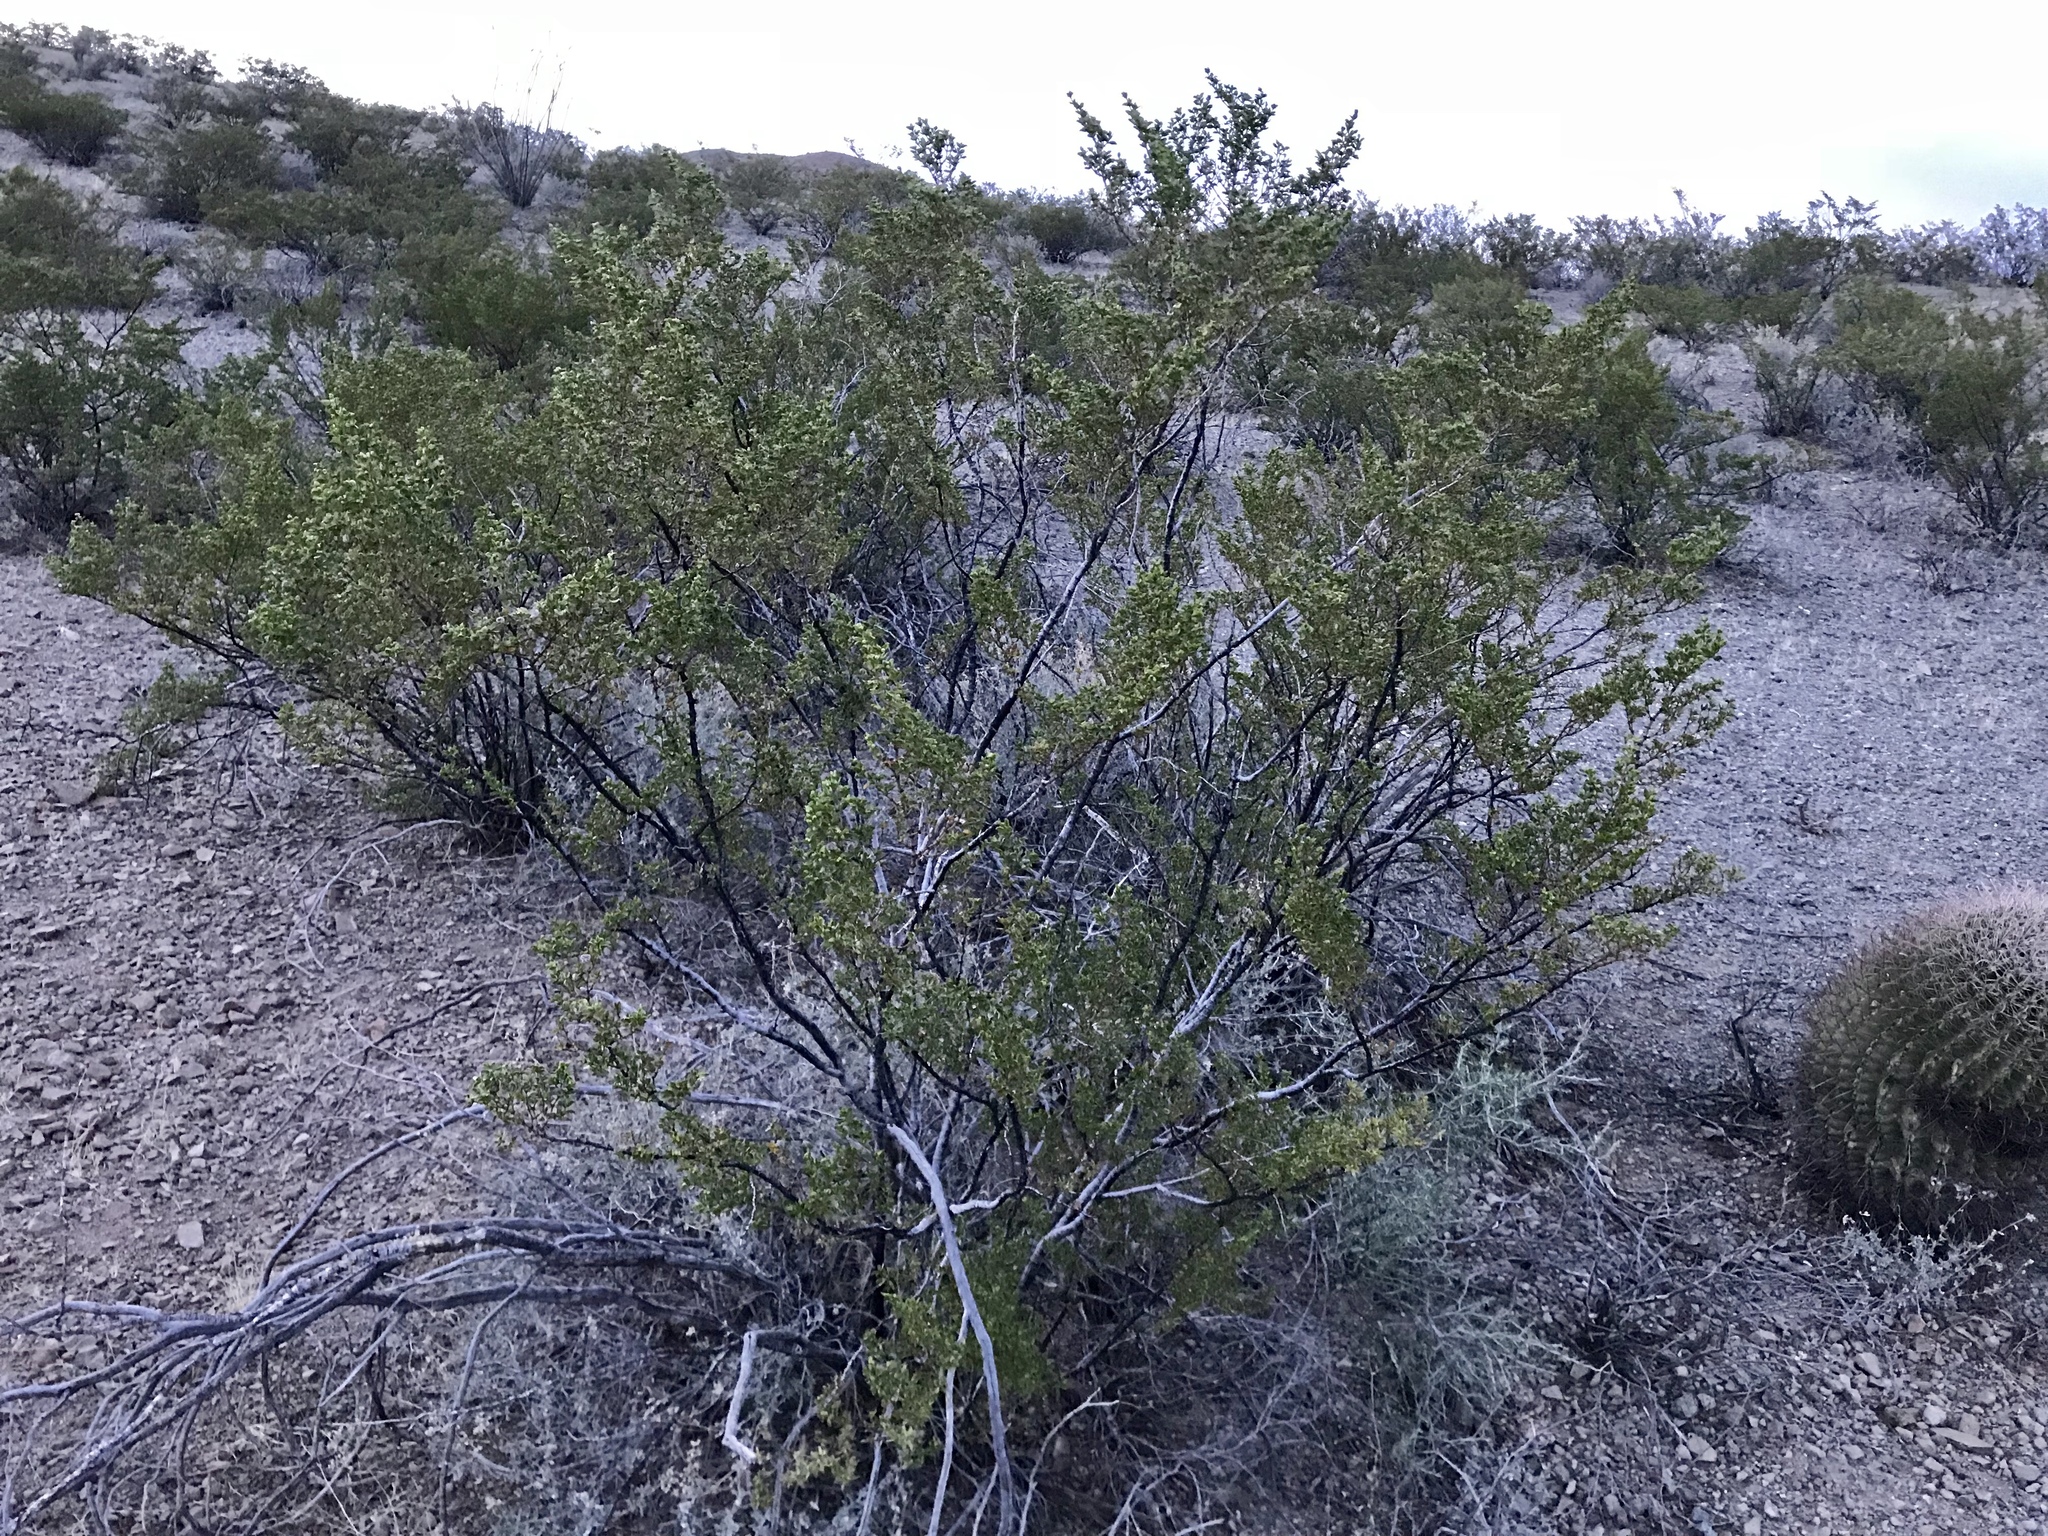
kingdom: Plantae
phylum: Tracheophyta
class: Magnoliopsida
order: Zygophyllales
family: Zygophyllaceae
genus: Larrea
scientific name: Larrea tridentata
